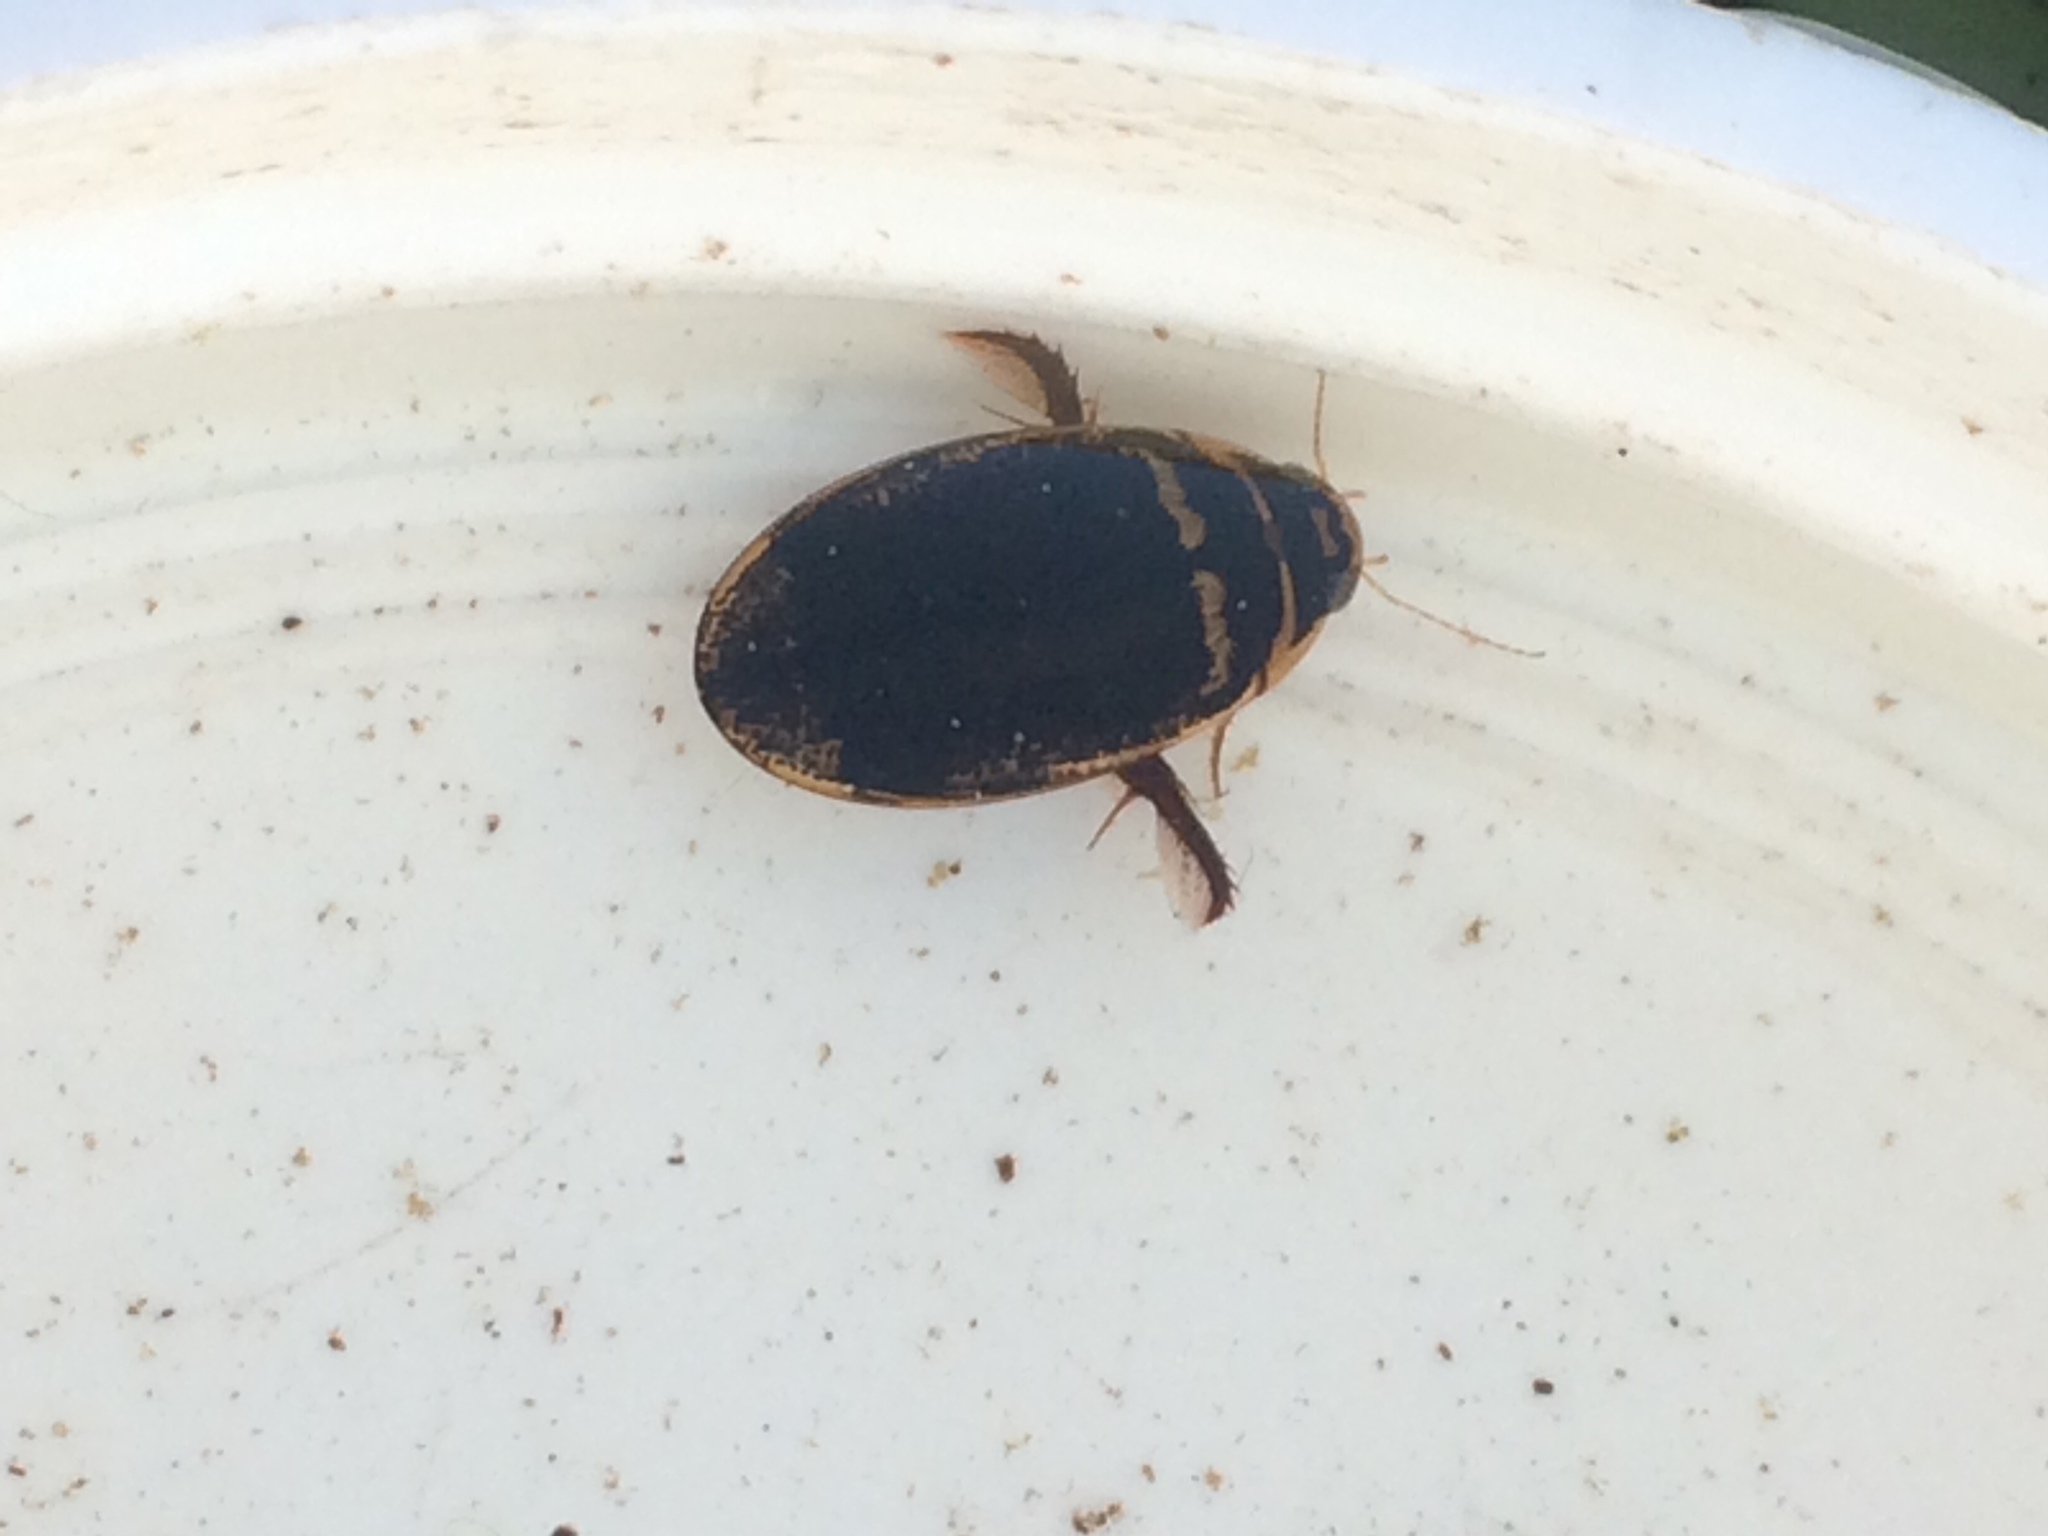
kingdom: Animalia
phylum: Arthropoda
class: Insecta
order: Coleoptera
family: Dytiscidae
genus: Thermonectus
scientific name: Thermonectus basillaris
